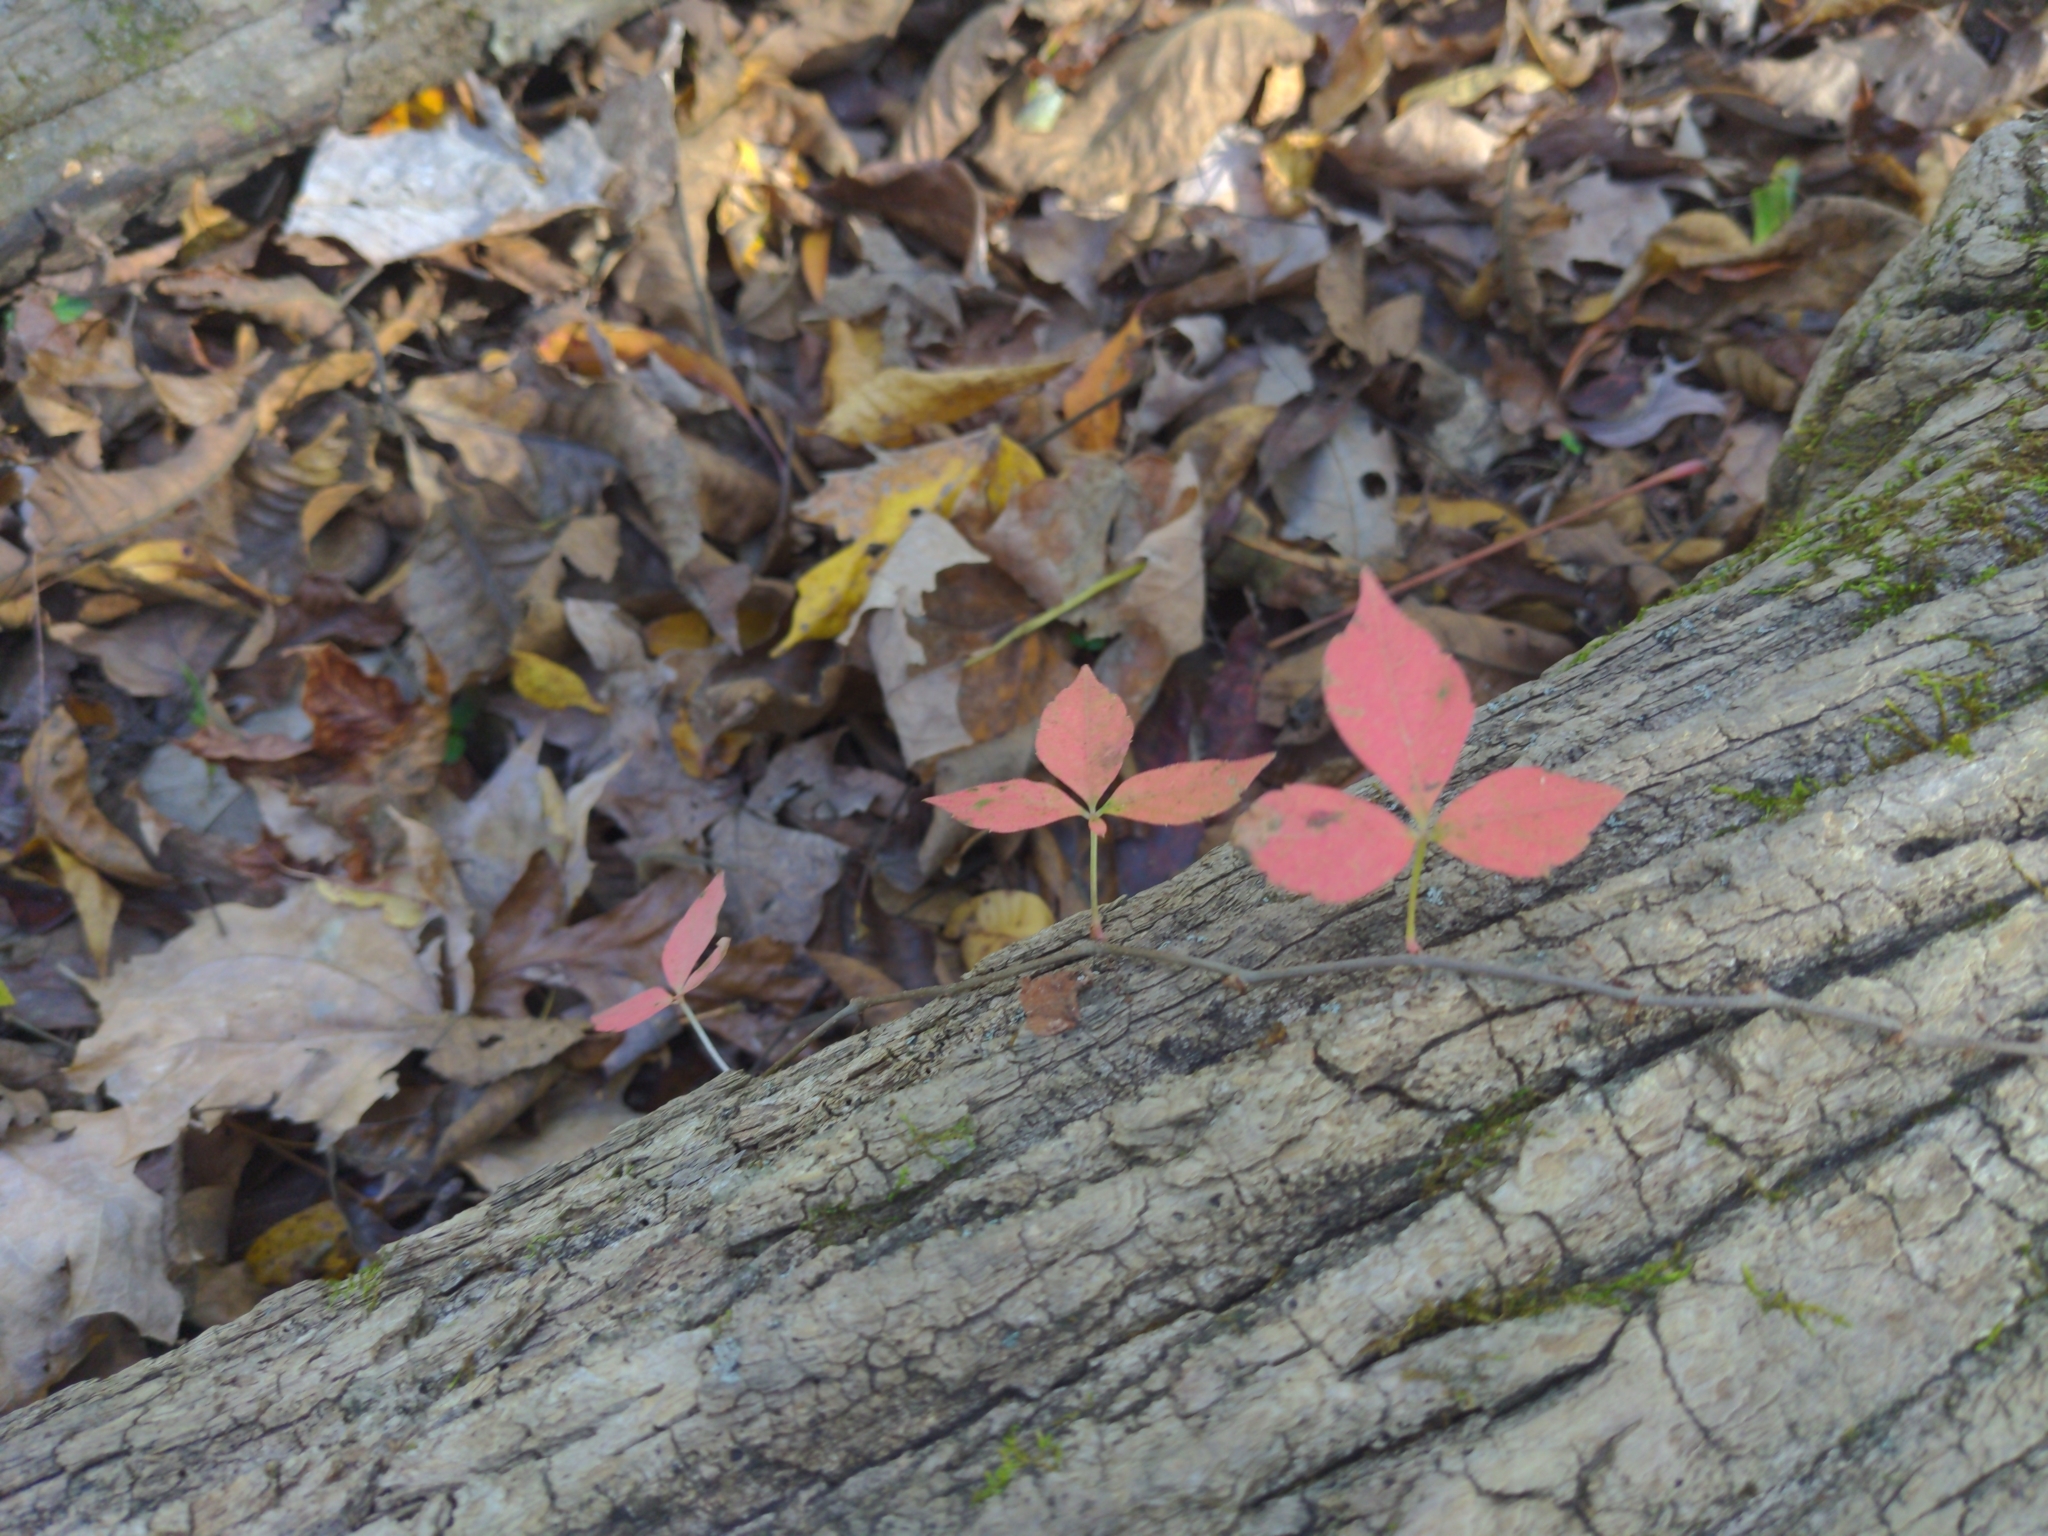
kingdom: Plantae
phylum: Tracheophyta
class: Magnoliopsida
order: Sapindales
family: Anacardiaceae
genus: Toxicodendron
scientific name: Toxicodendron radicans
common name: Poison ivy
